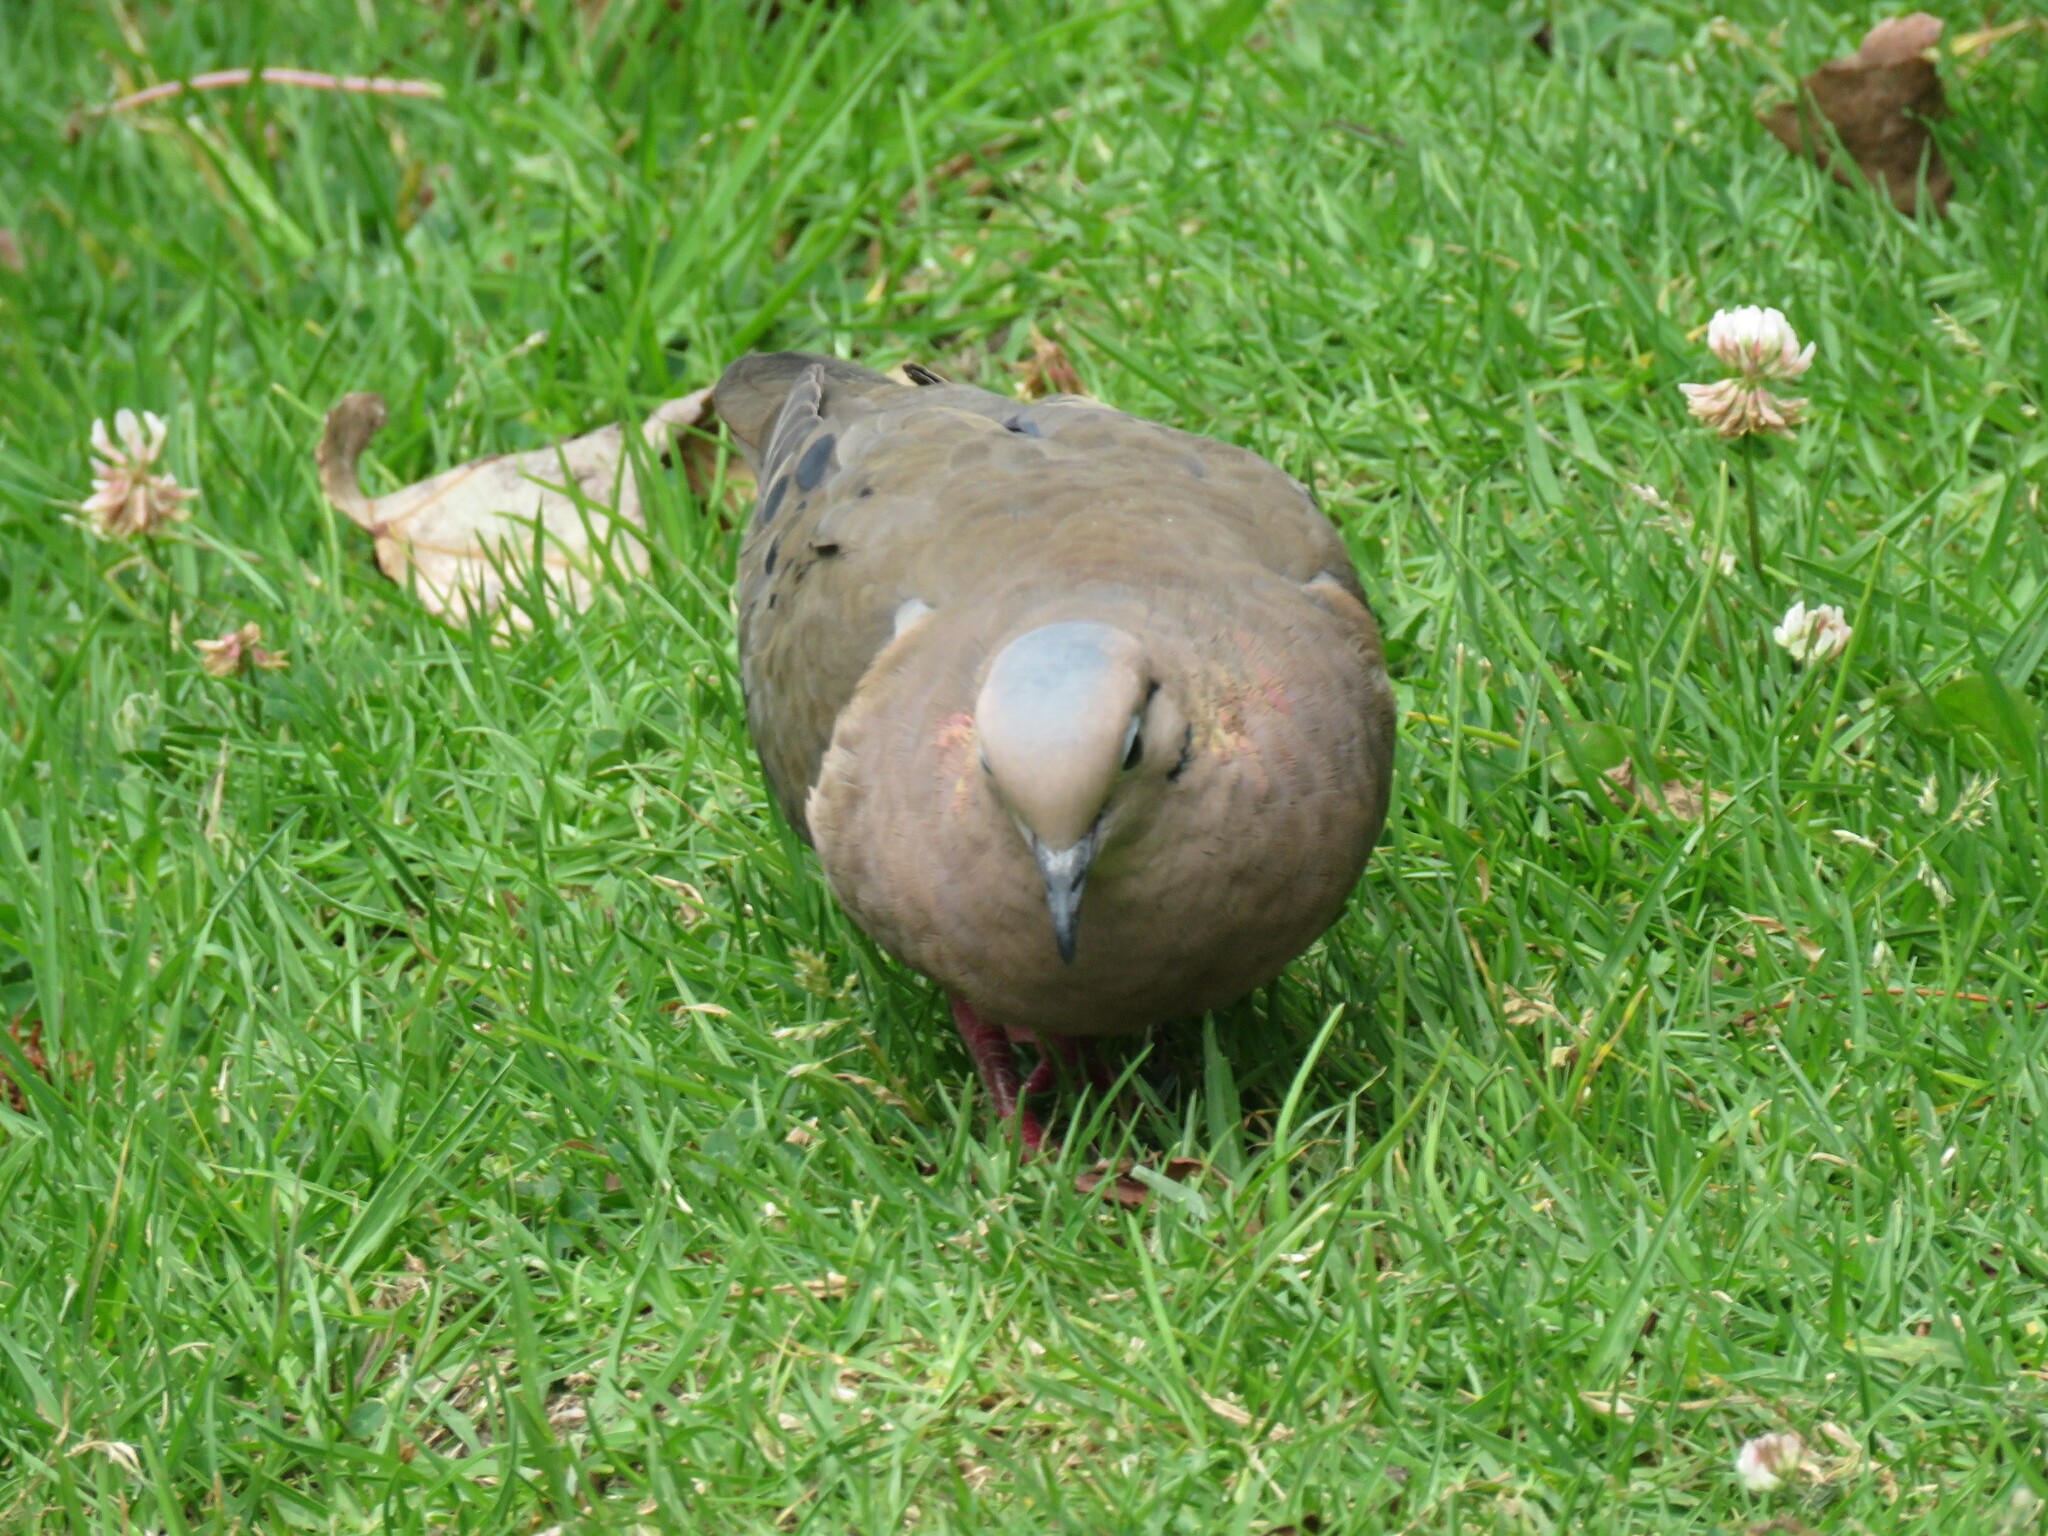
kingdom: Animalia
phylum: Chordata
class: Aves
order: Columbiformes
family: Columbidae
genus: Zenaida
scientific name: Zenaida auriculata
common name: Eared dove
